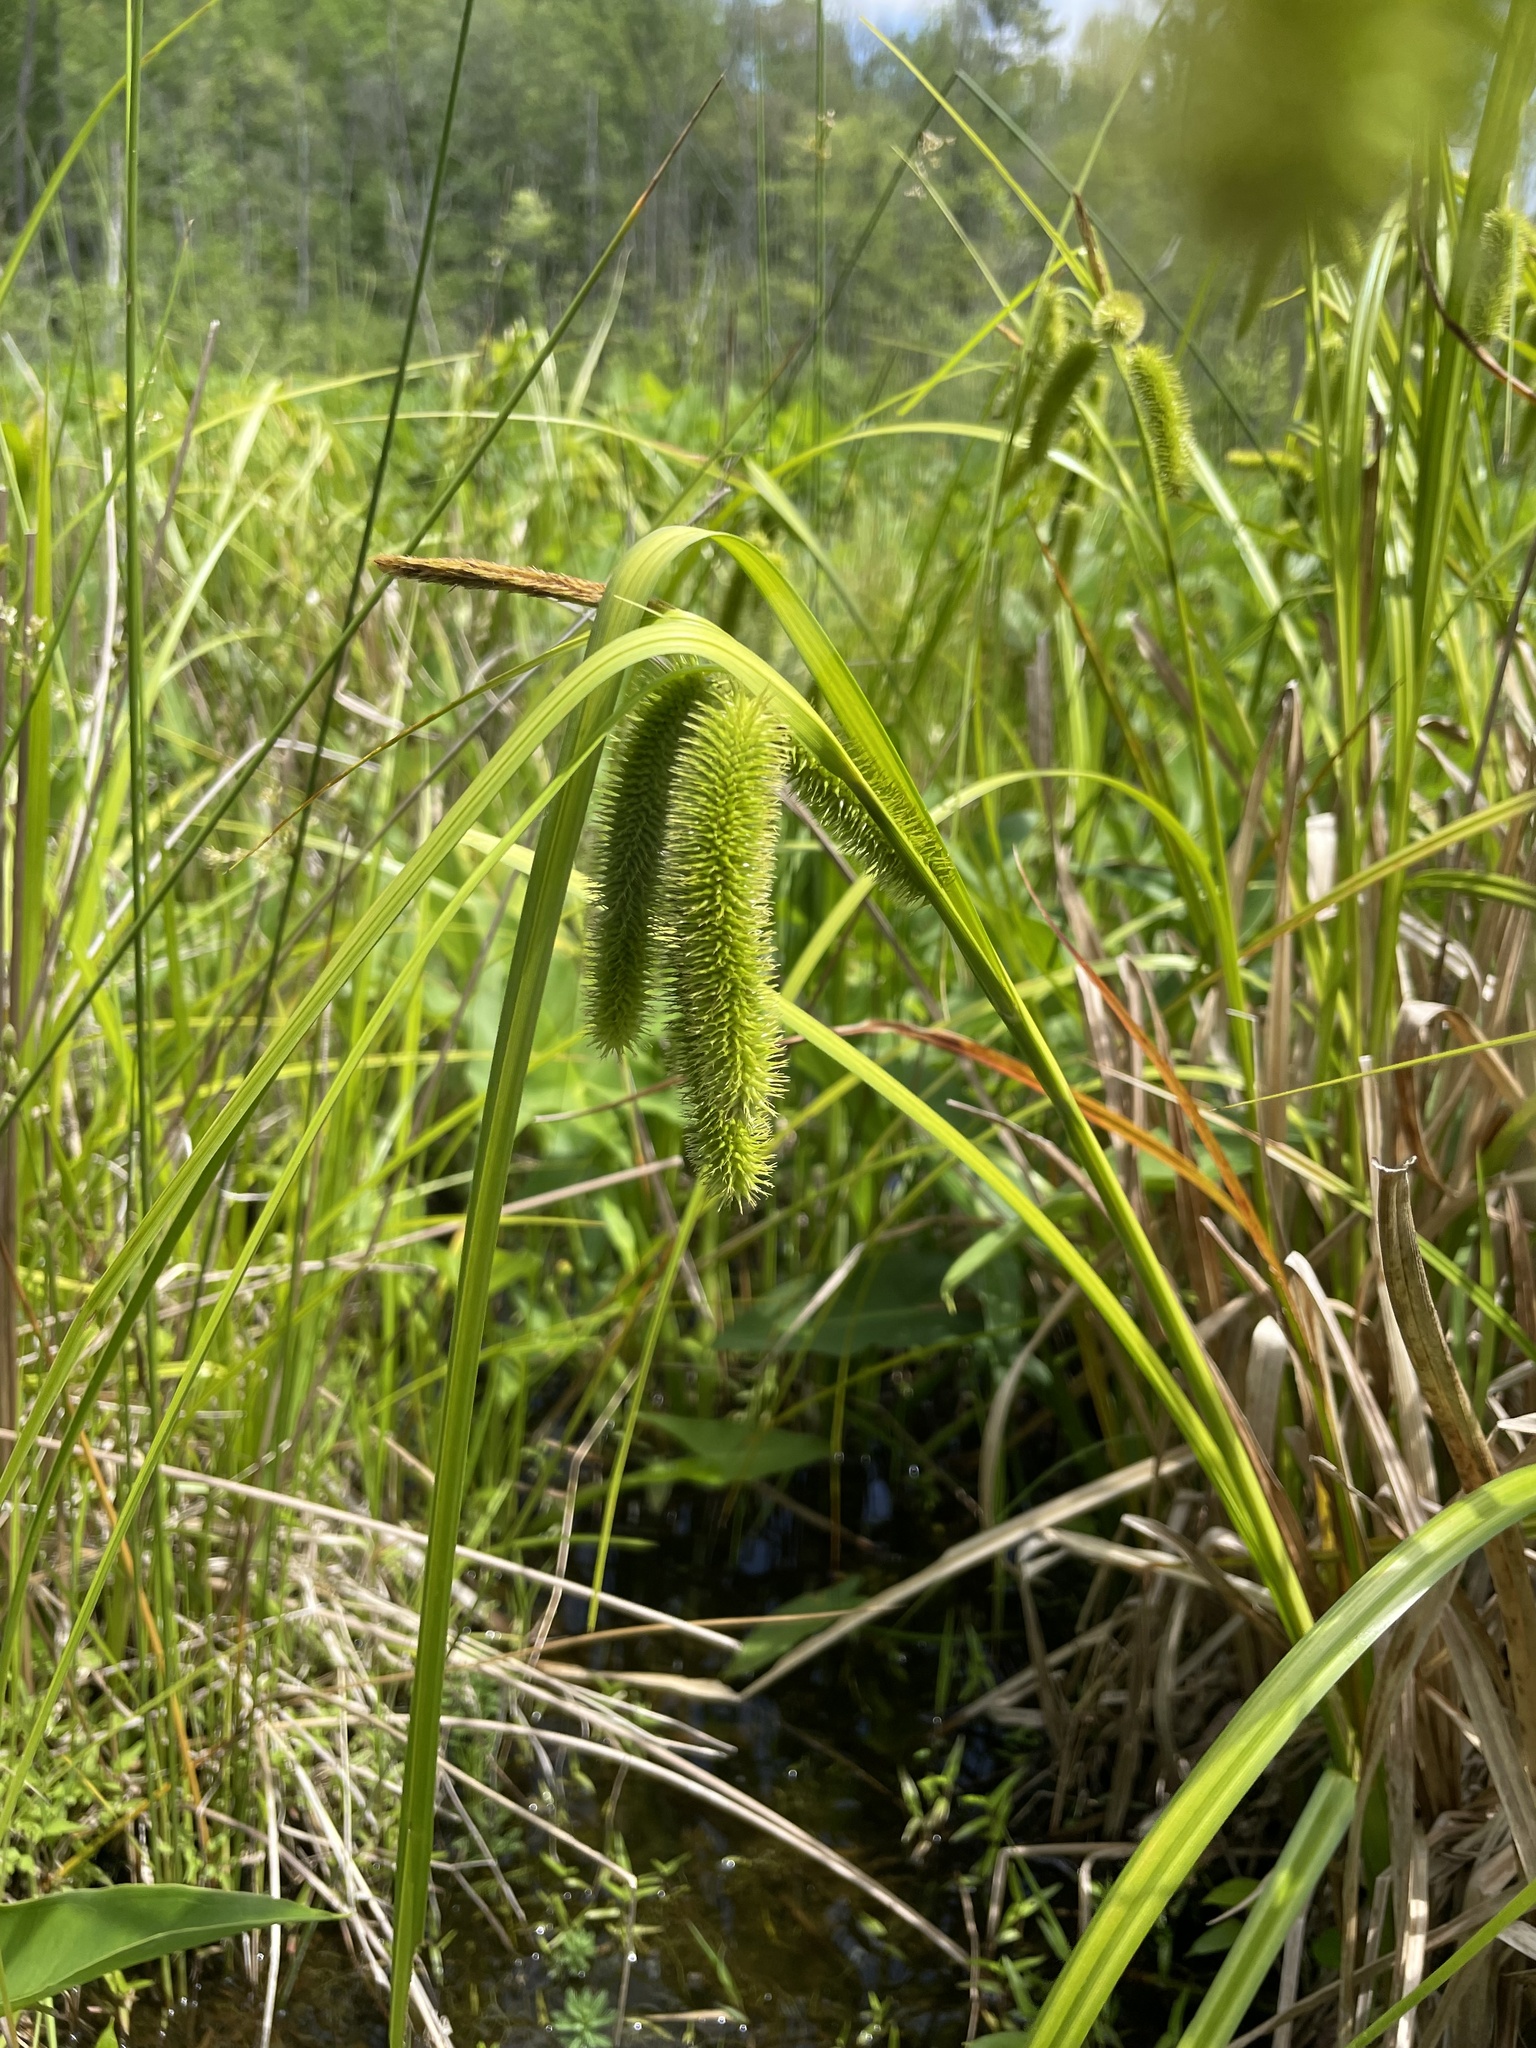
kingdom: Plantae
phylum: Tracheophyta
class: Liliopsida
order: Poales
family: Cyperaceae
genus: Carex
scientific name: Carex comosa
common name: Bristly sedge
